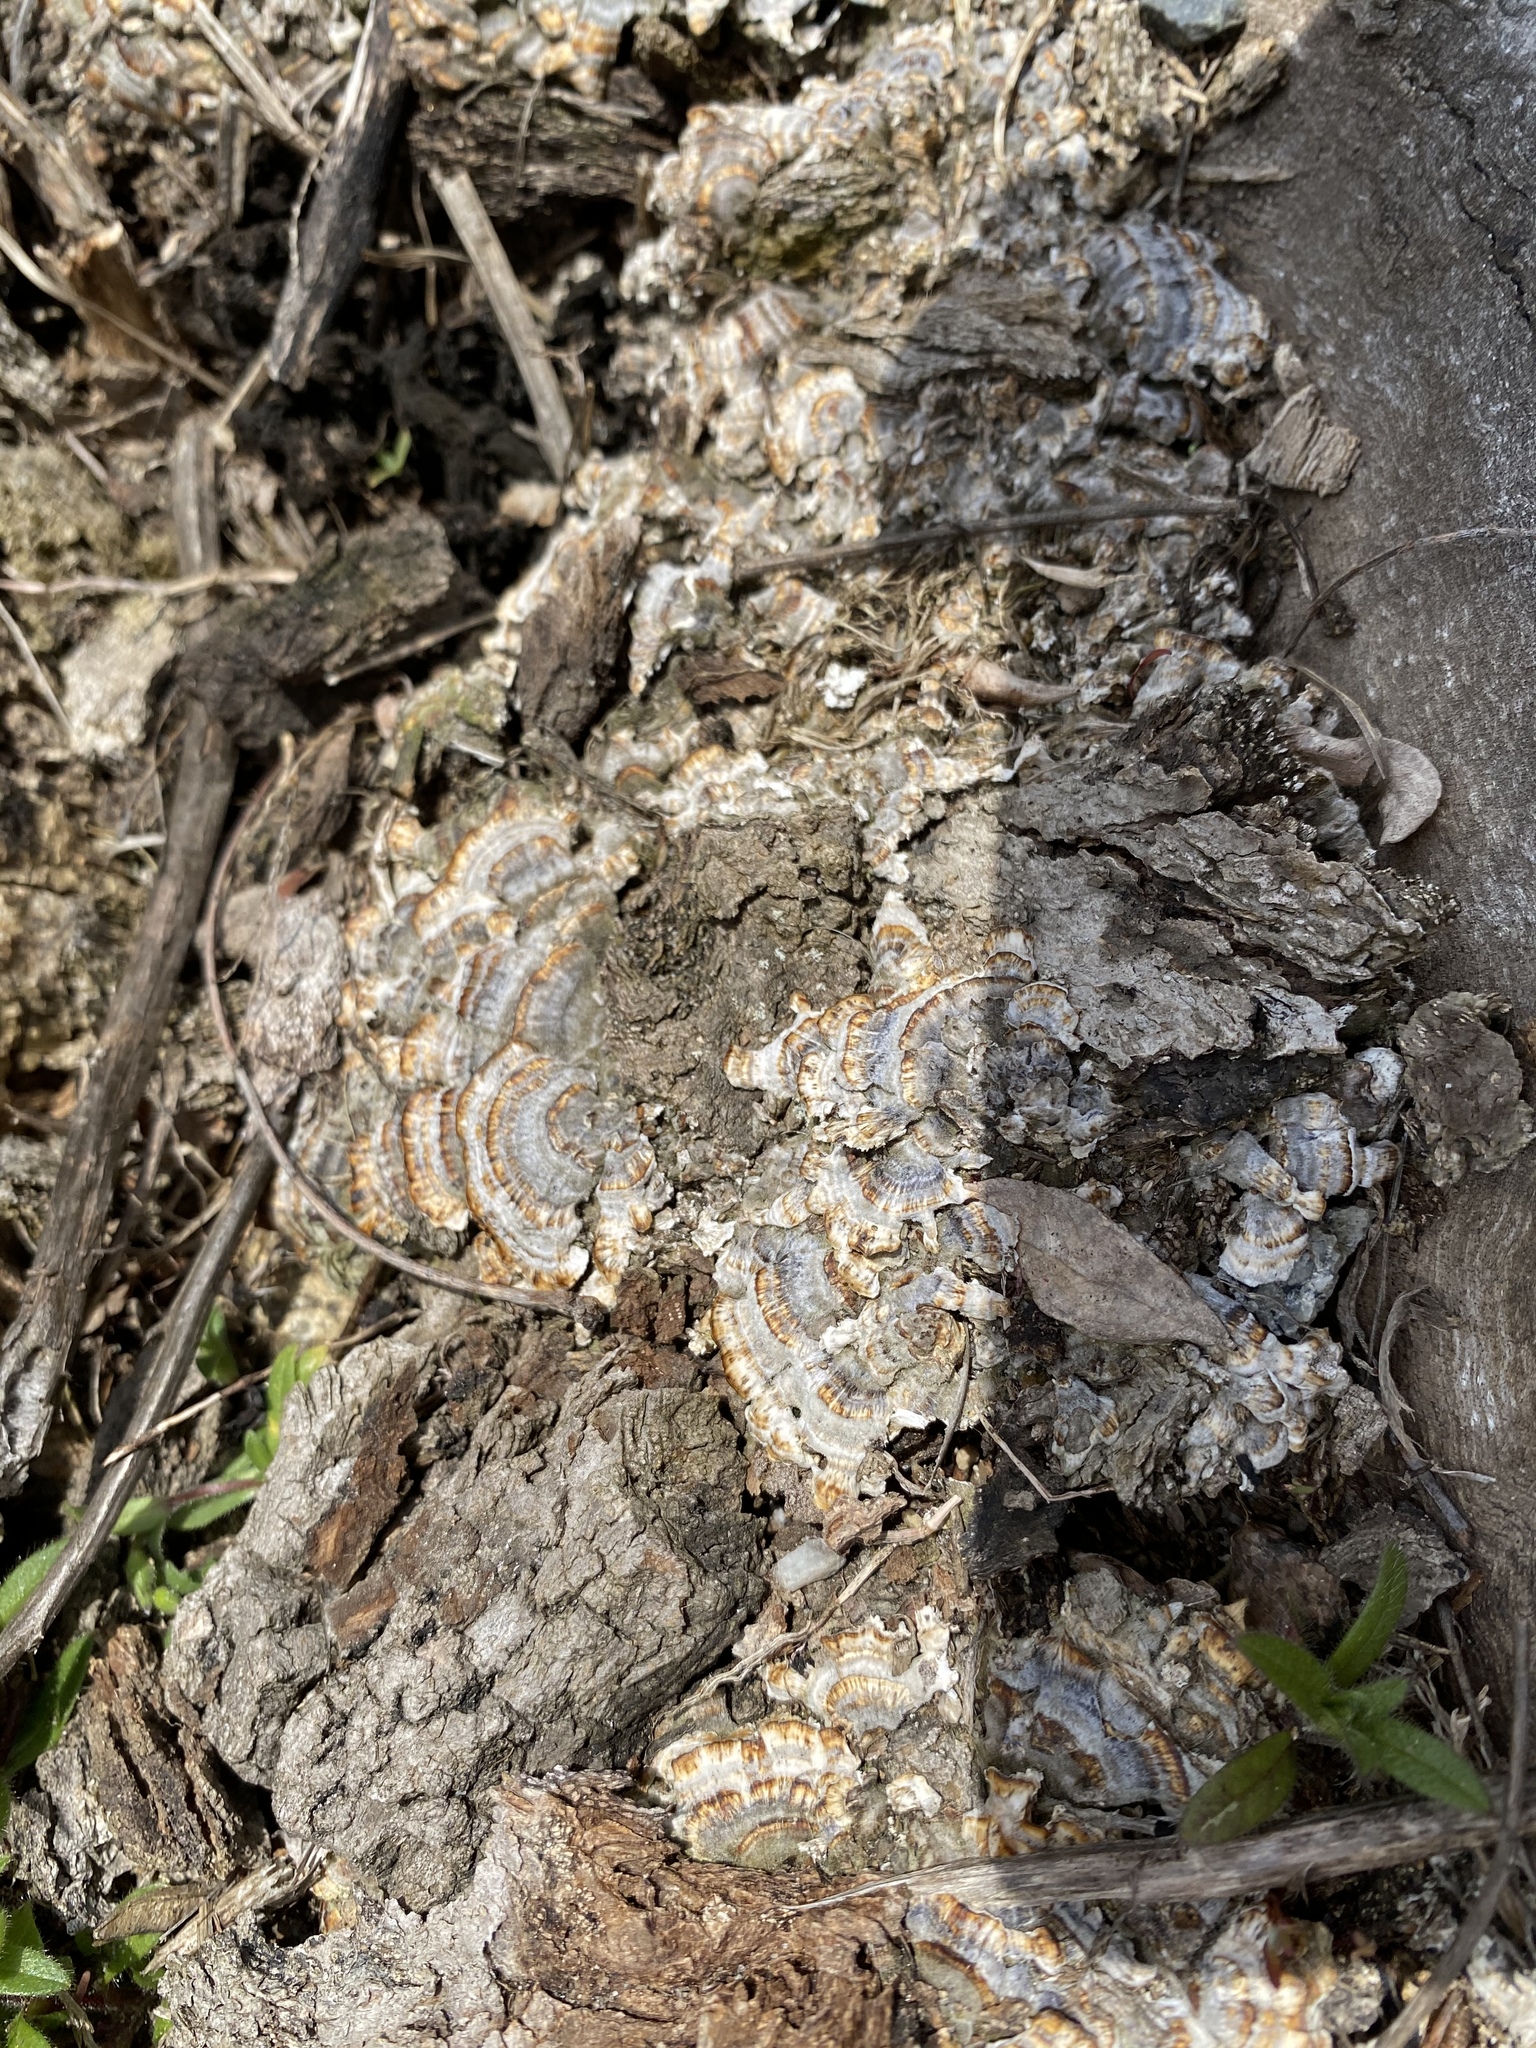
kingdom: Fungi
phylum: Basidiomycota
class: Agaricomycetes
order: Polyporales
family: Polyporaceae
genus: Trametes
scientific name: Trametes versicolor
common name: Turkeytail
